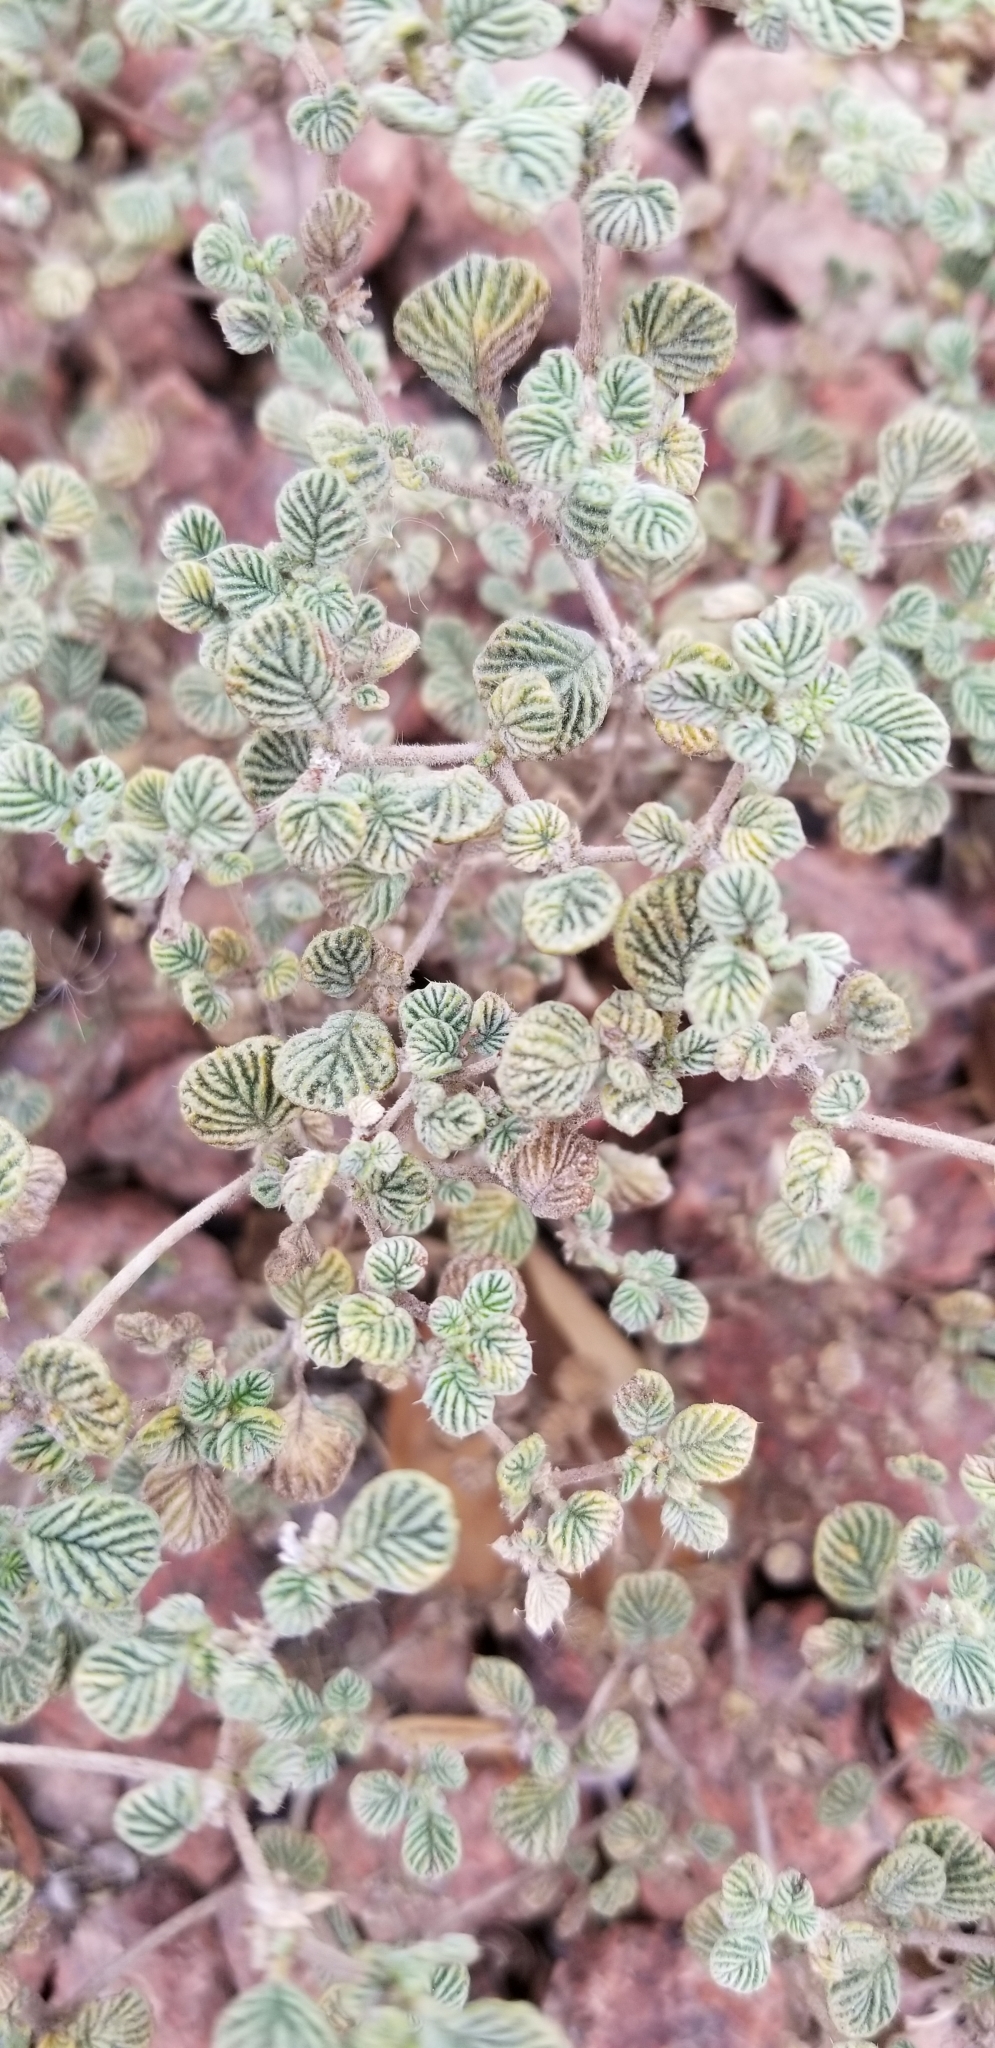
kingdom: Plantae
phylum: Tracheophyta
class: Magnoliopsida
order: Boraginales
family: Ehretiaceae
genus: Tiquilia
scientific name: Tiquilia plicata
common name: Fan-leaf tiquilia
